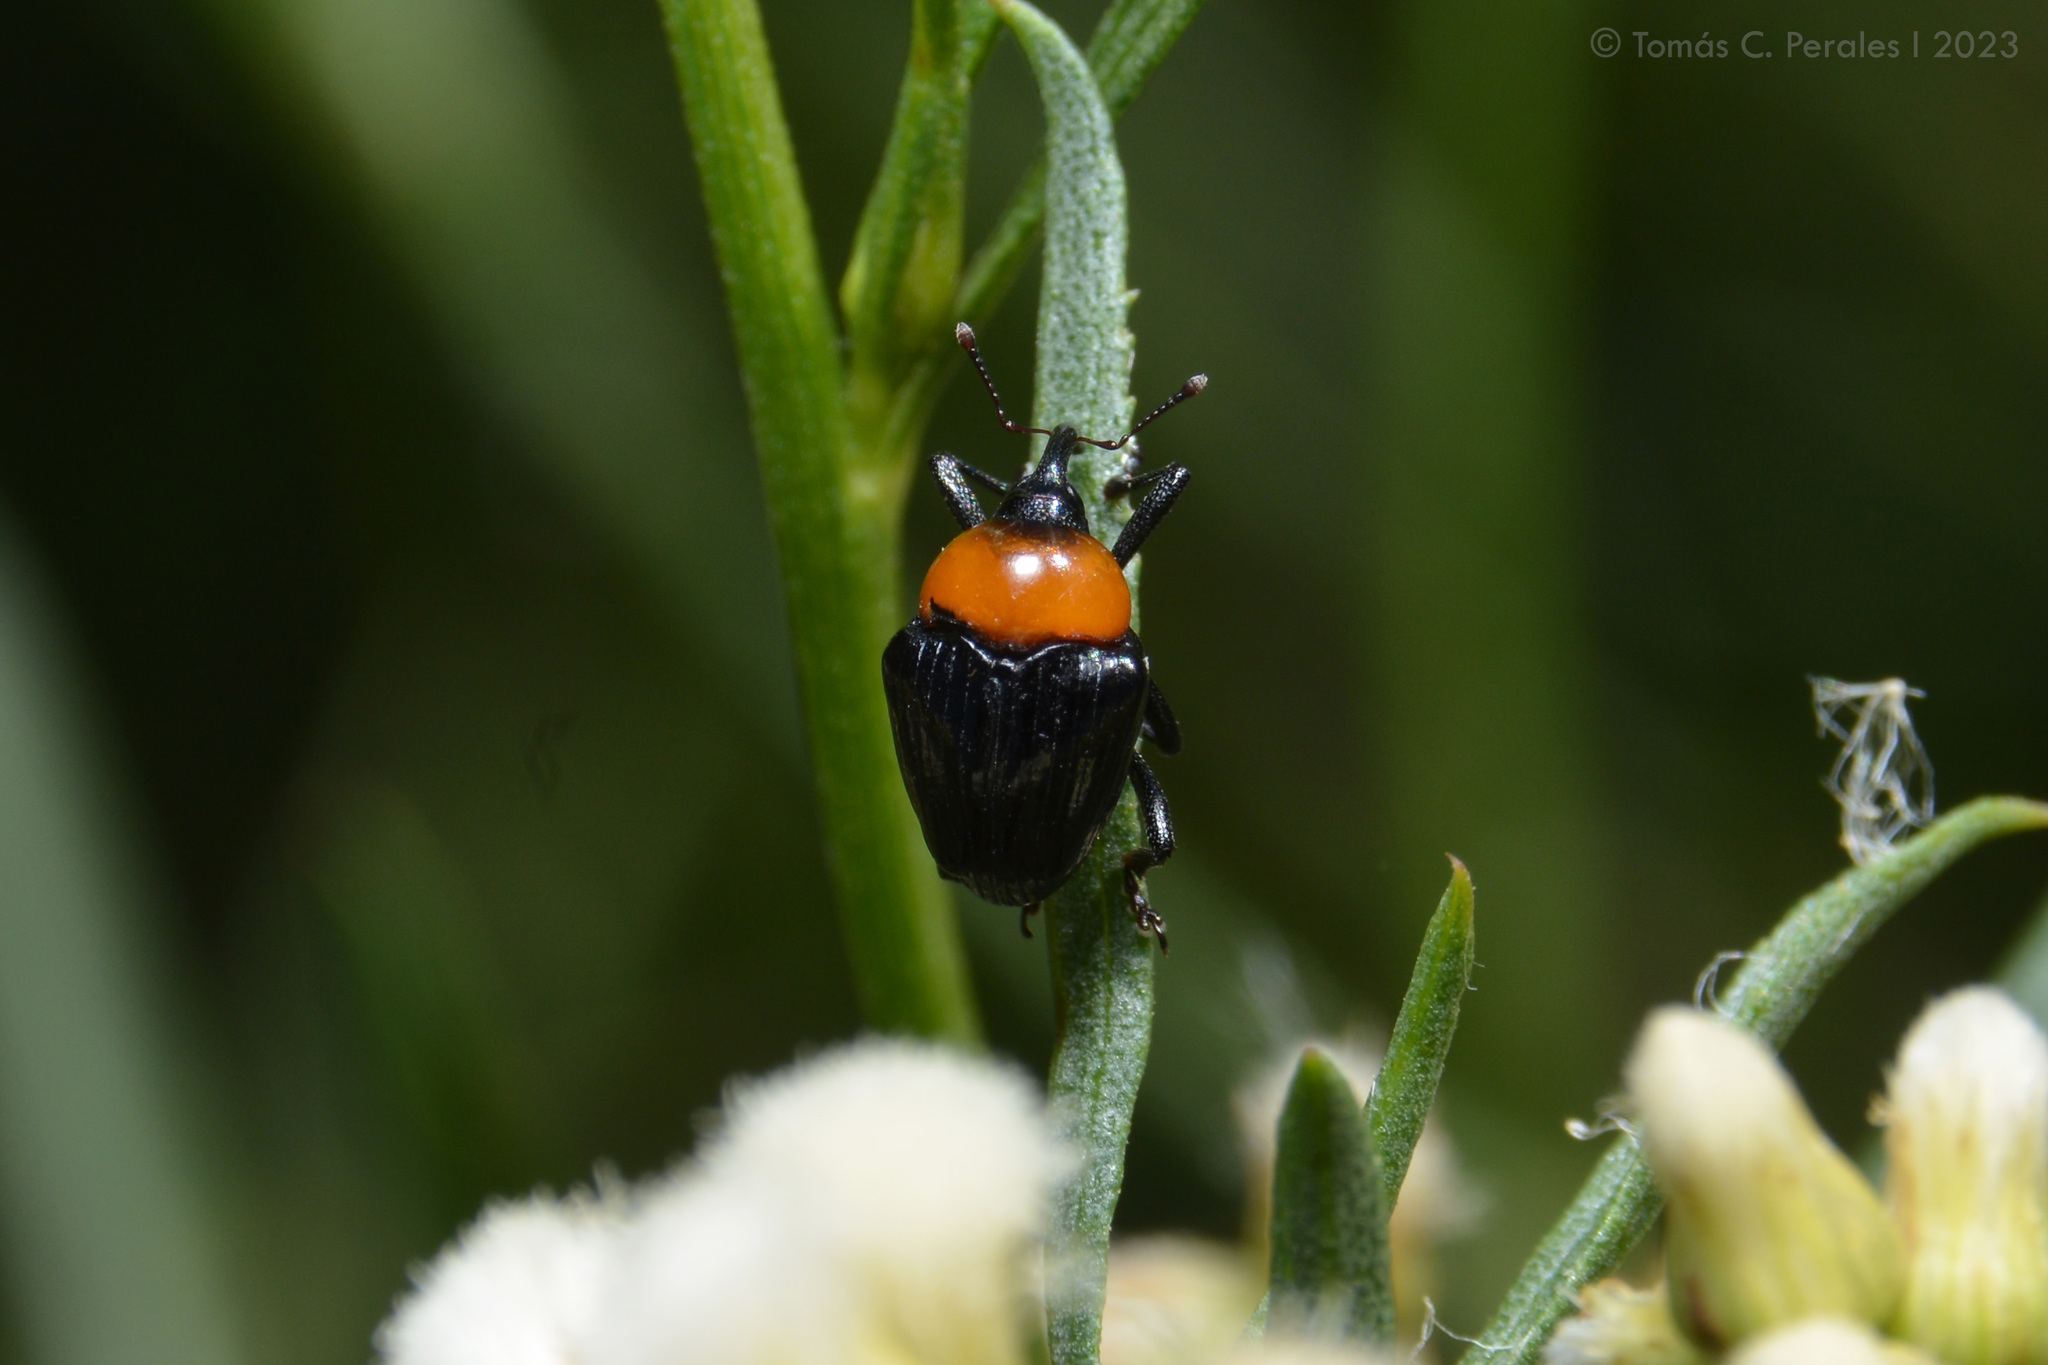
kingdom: Animalia
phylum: Arthropoda
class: Insecta
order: Coleoptera
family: Curculionidae
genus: Xystus
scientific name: Xystus sanguinicollis
